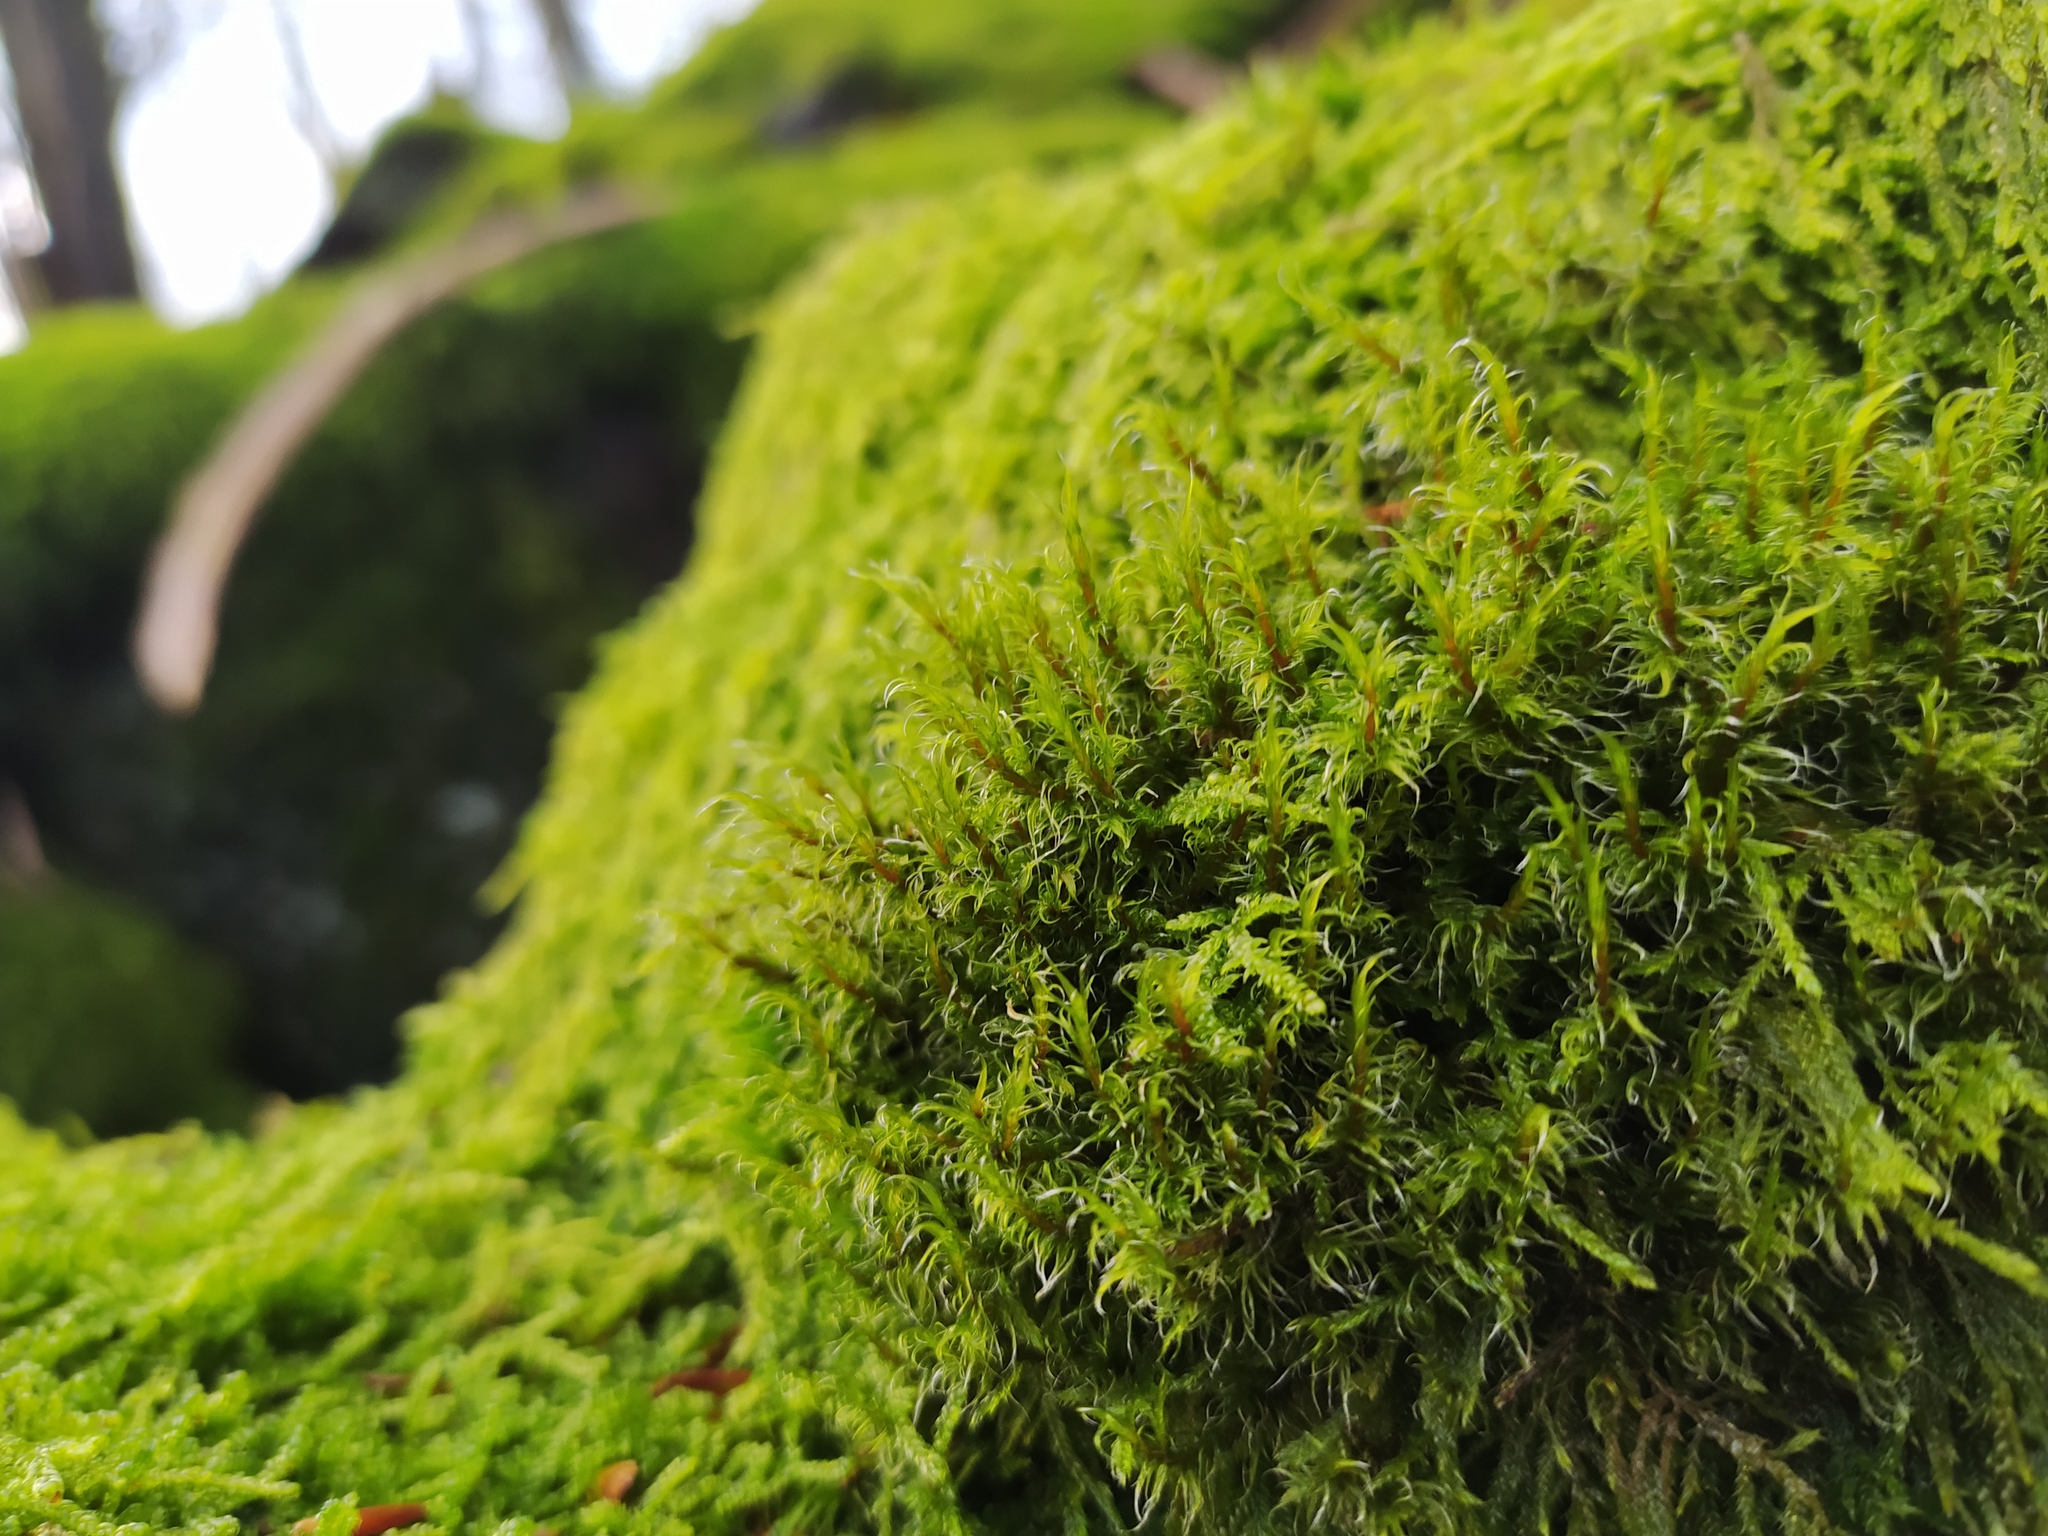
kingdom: Plantae
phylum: Bryophyta
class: Bryopsida
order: Grimmiales
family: Grimmiaceae
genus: Racomitrium
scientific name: Racomitrium lanuginosum
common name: Hoary rock moss
